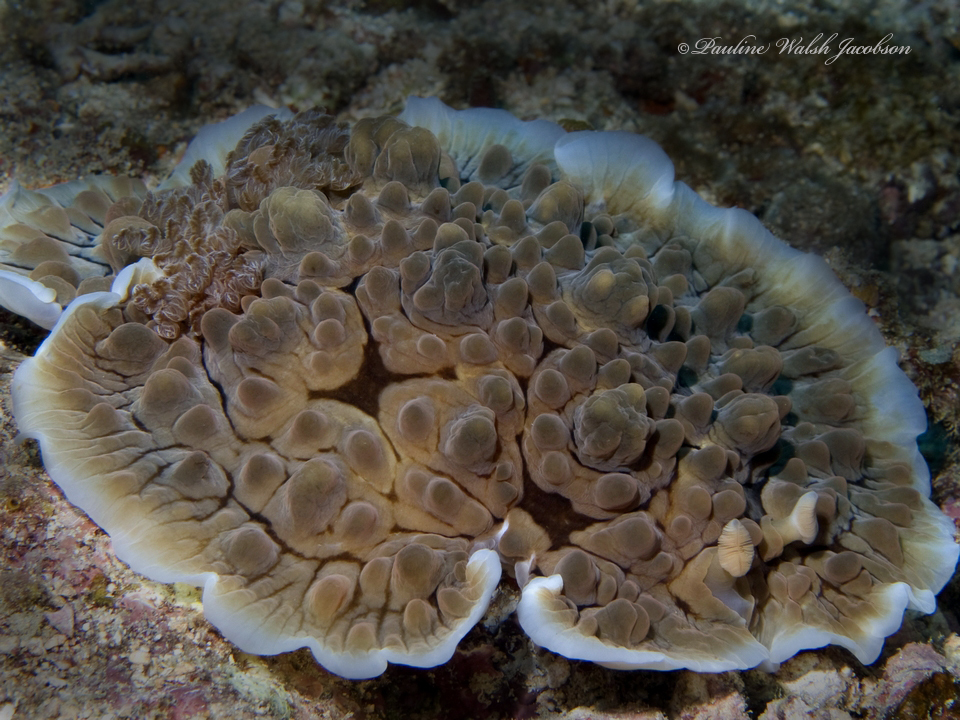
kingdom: Animalia
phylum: Mollusca
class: Gastropoda
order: Nudibranchia
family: Dendrodorididae
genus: Dendrodoris
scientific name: Dendrodoris carbunculosa
